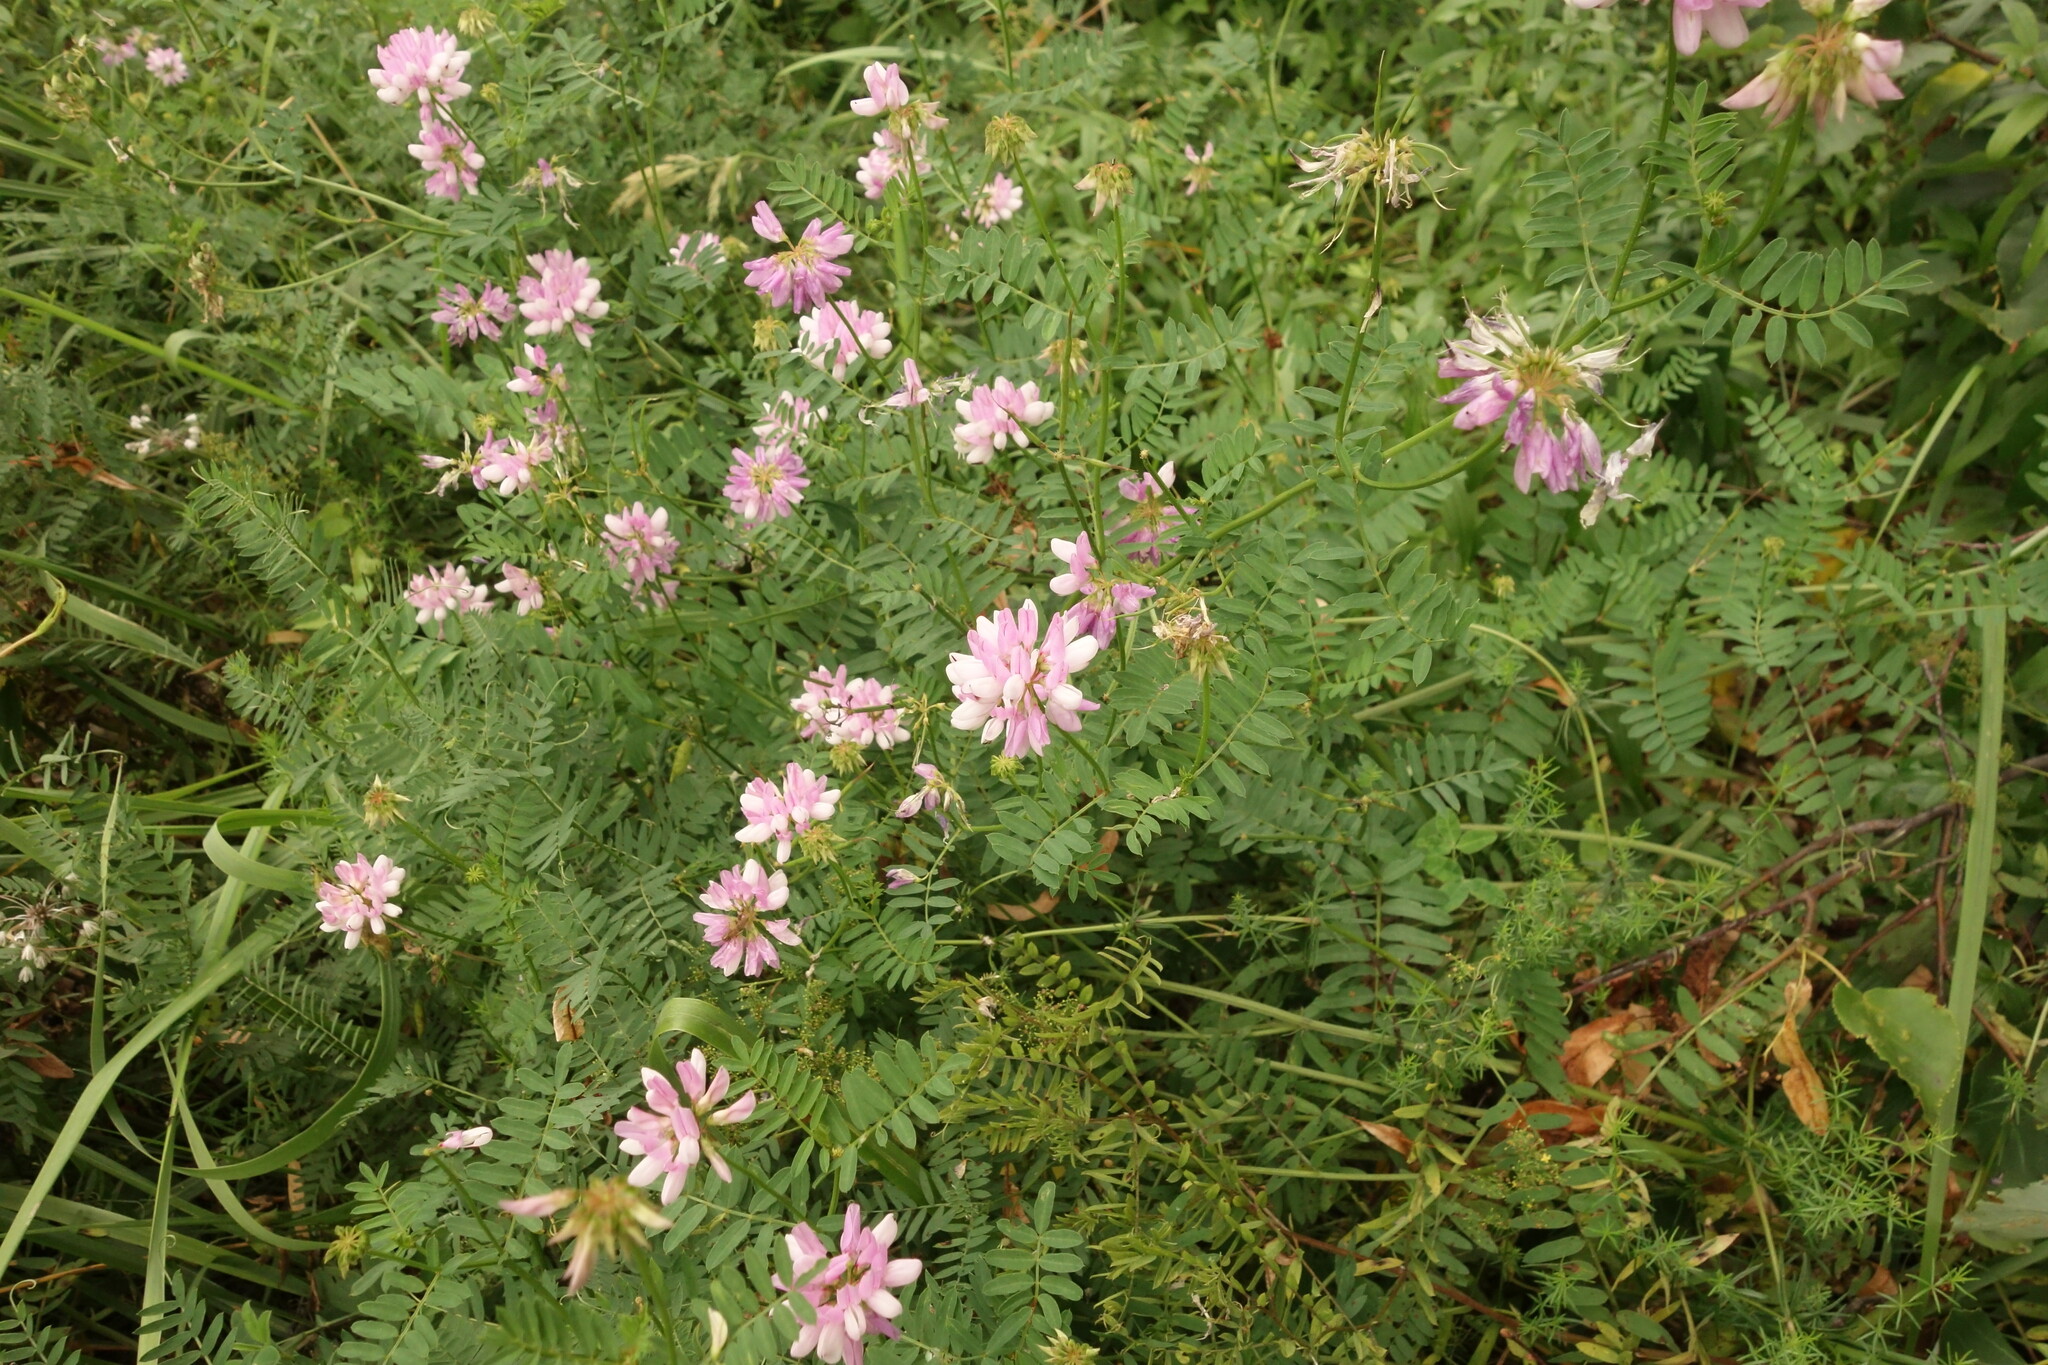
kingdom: Plantae
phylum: Tracheophyta
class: Magnoliopsida
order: Fabales
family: Fabaceae
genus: Coronilla
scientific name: Coronilla varia
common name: Crownvetch
